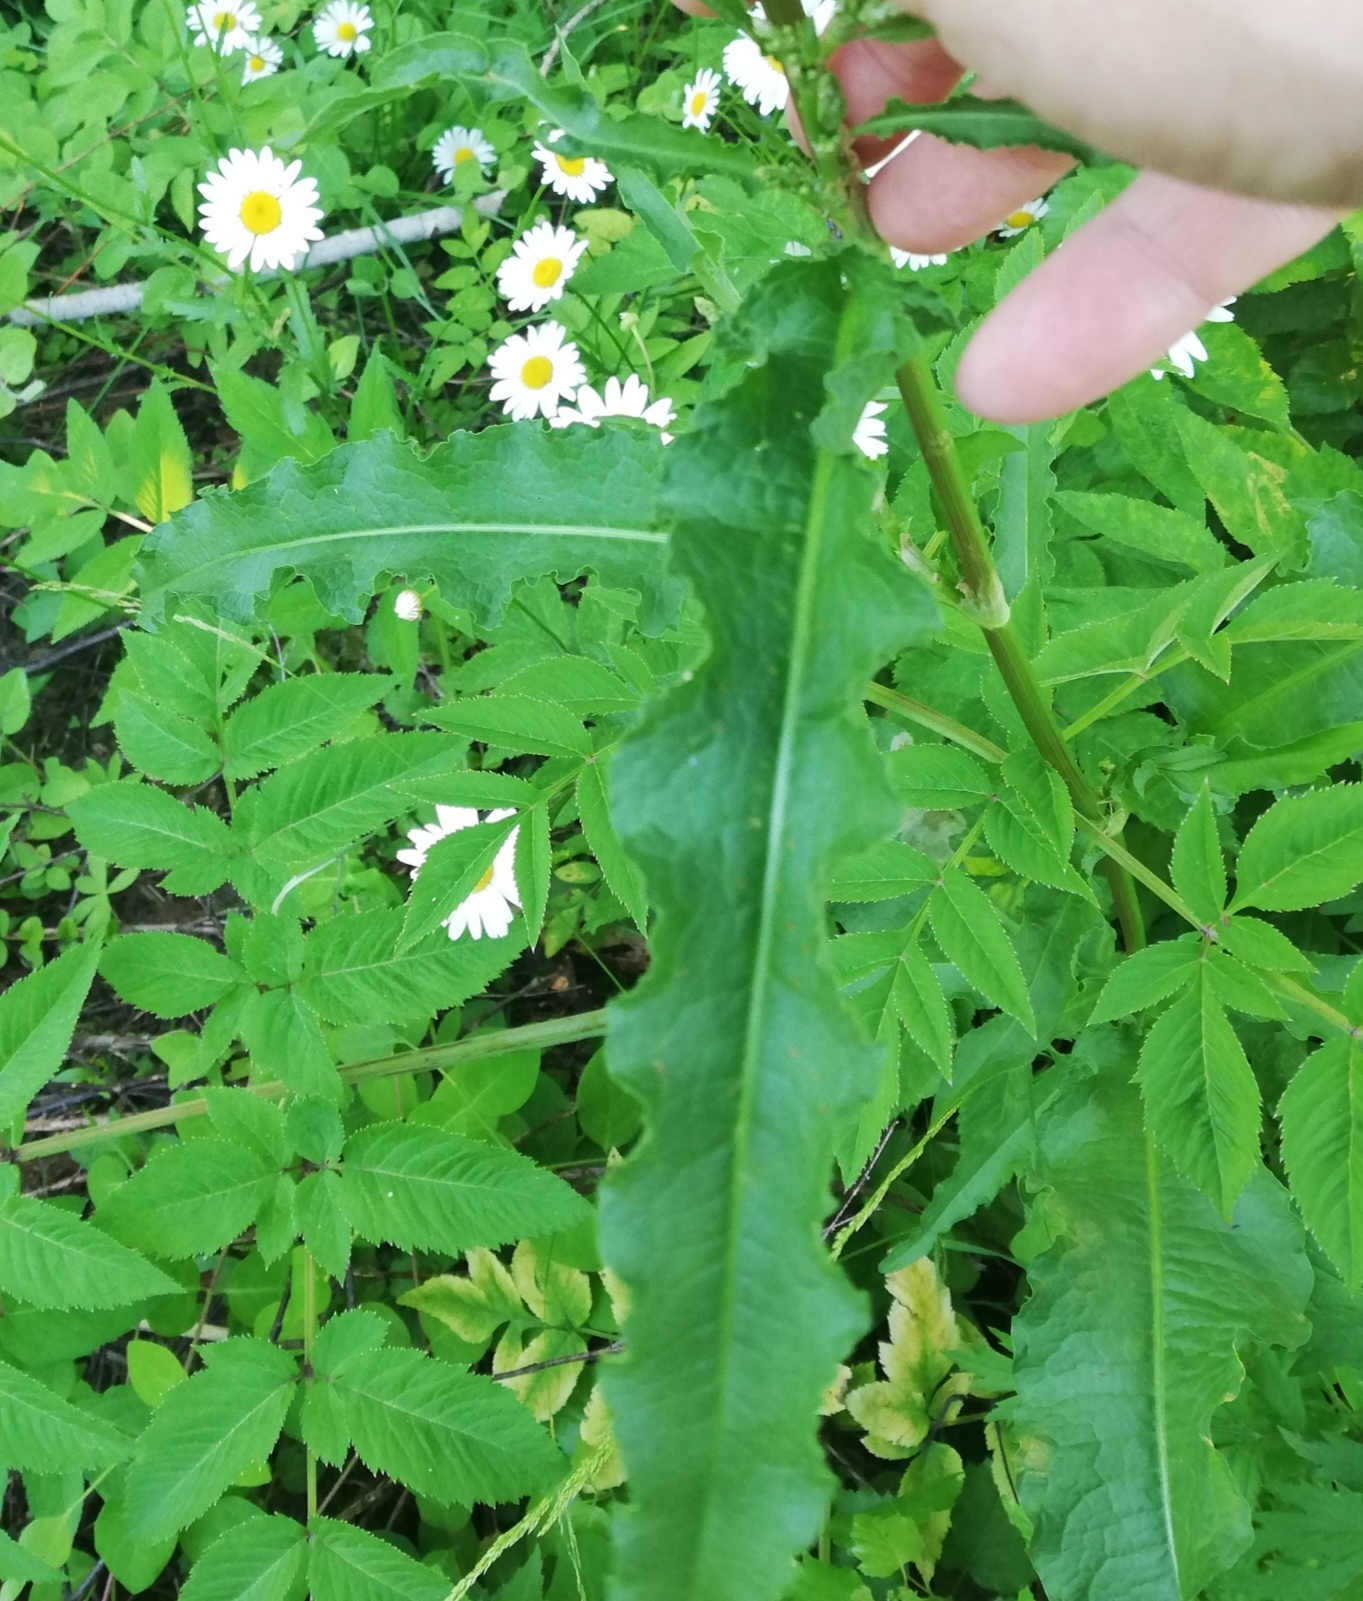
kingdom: Plantae
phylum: Tracheophyta
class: Magnoliopsida
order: Caryophyllales
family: Polygonaceae
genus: Rumex
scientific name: Rumex crispus
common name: Curled dock
